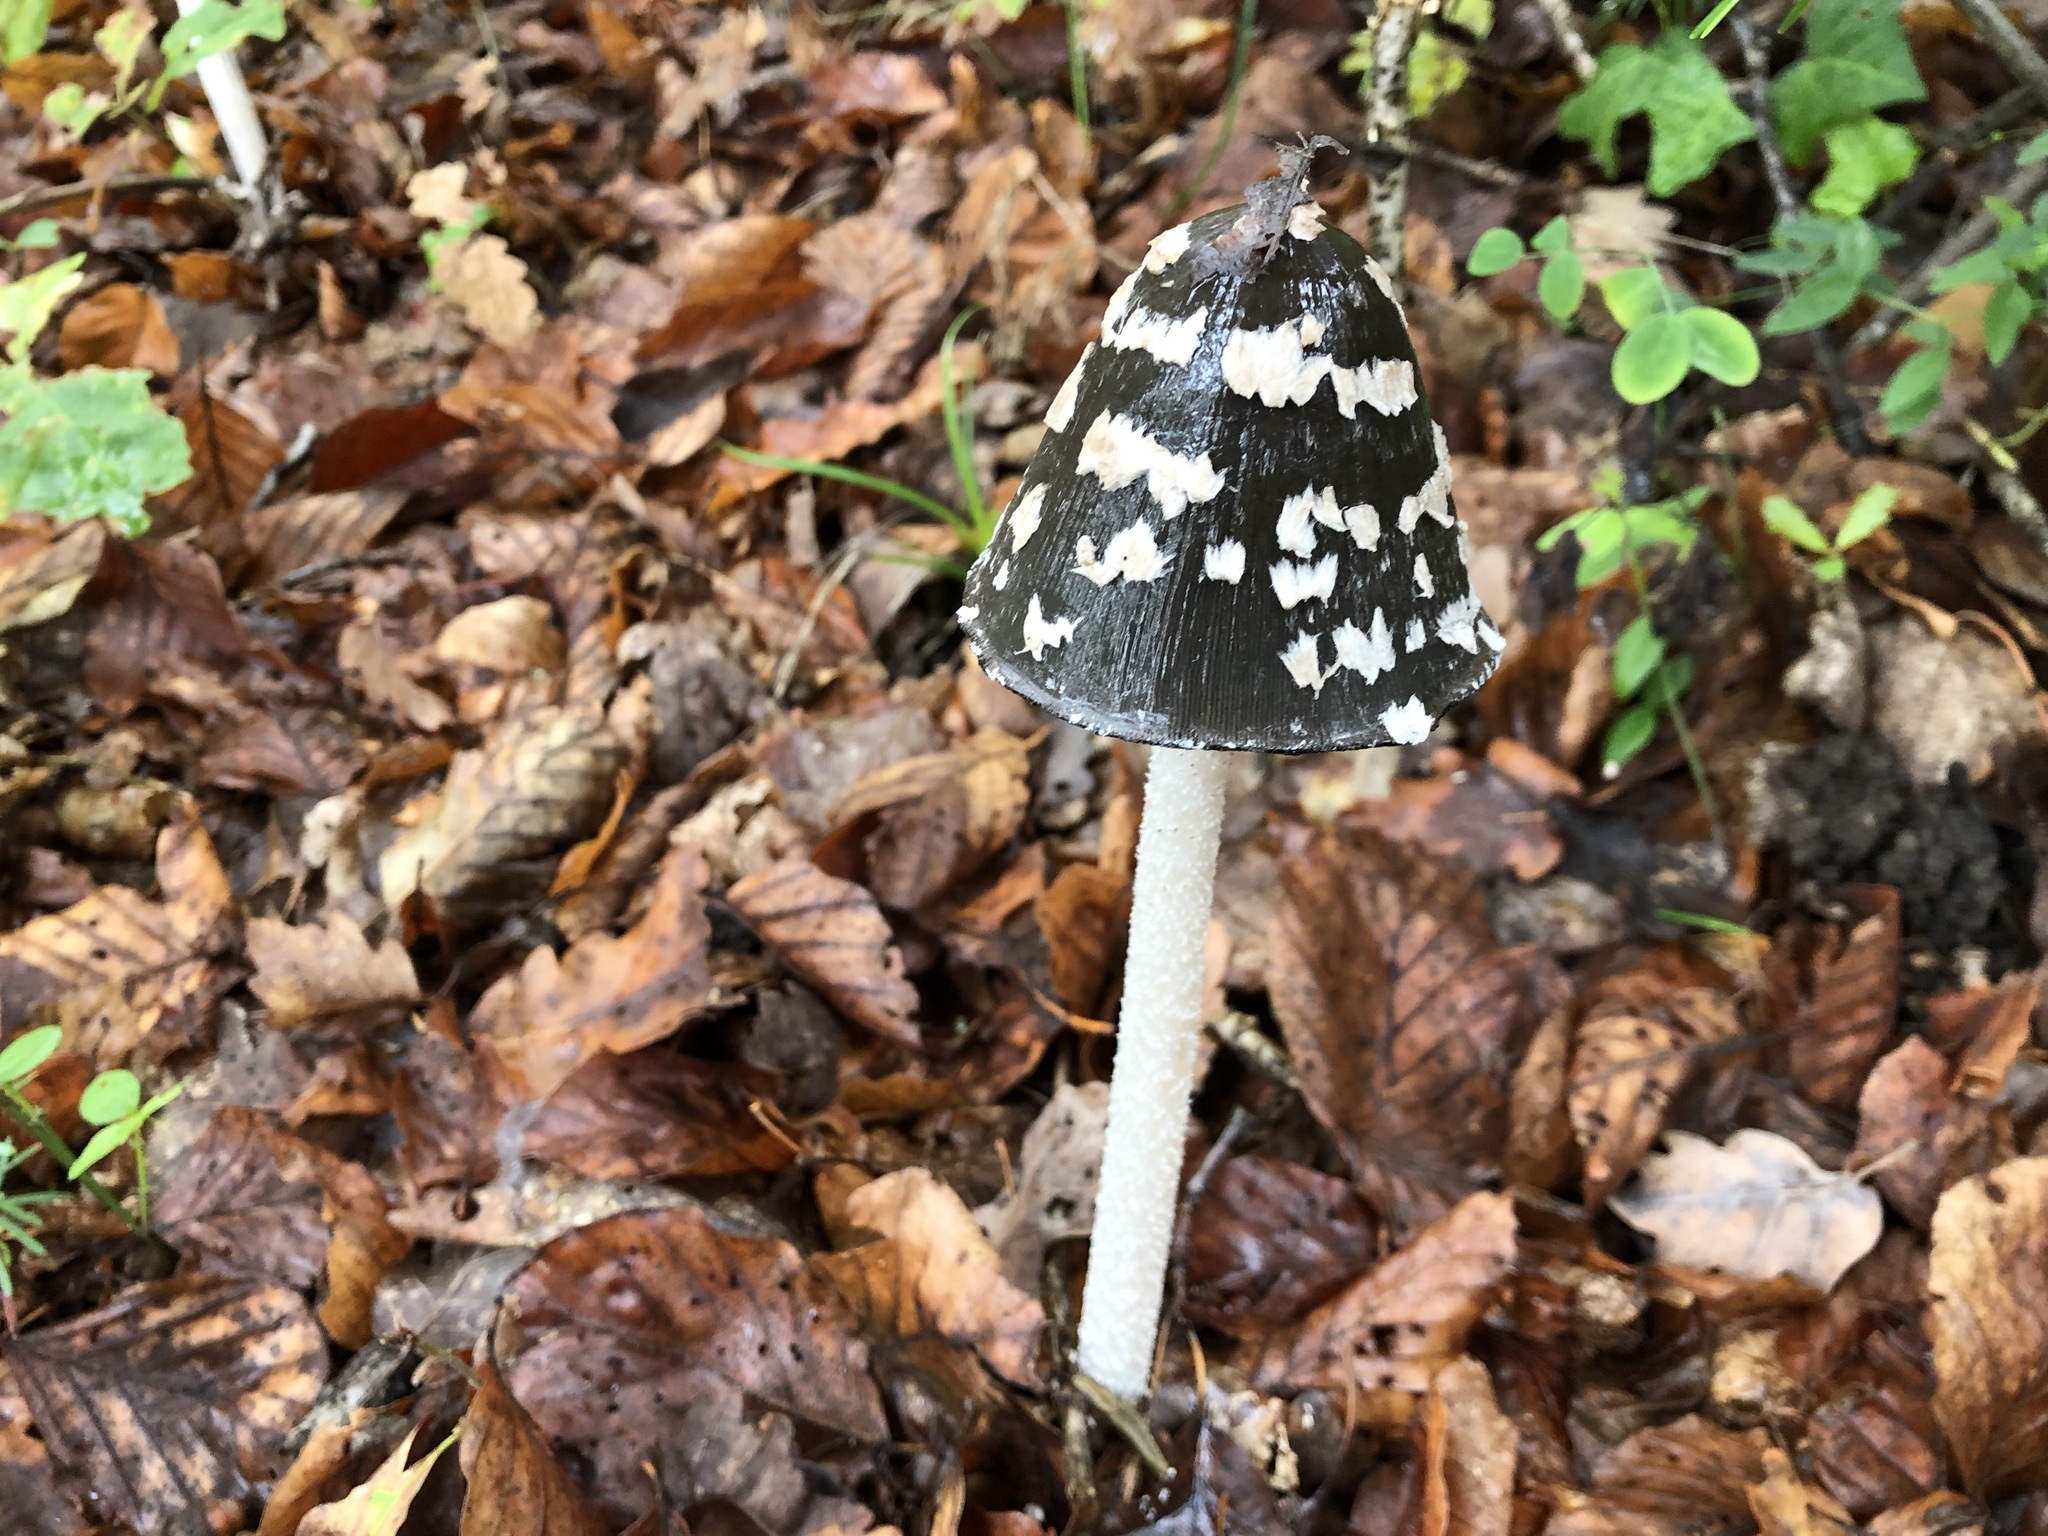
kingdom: Fungi
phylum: Basidiomycota
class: Agaricomycetes
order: Agaricales
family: Psathyrellaceae
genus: Coprinopsis
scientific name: Coprinopsis picacea
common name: Magpie inkcap
